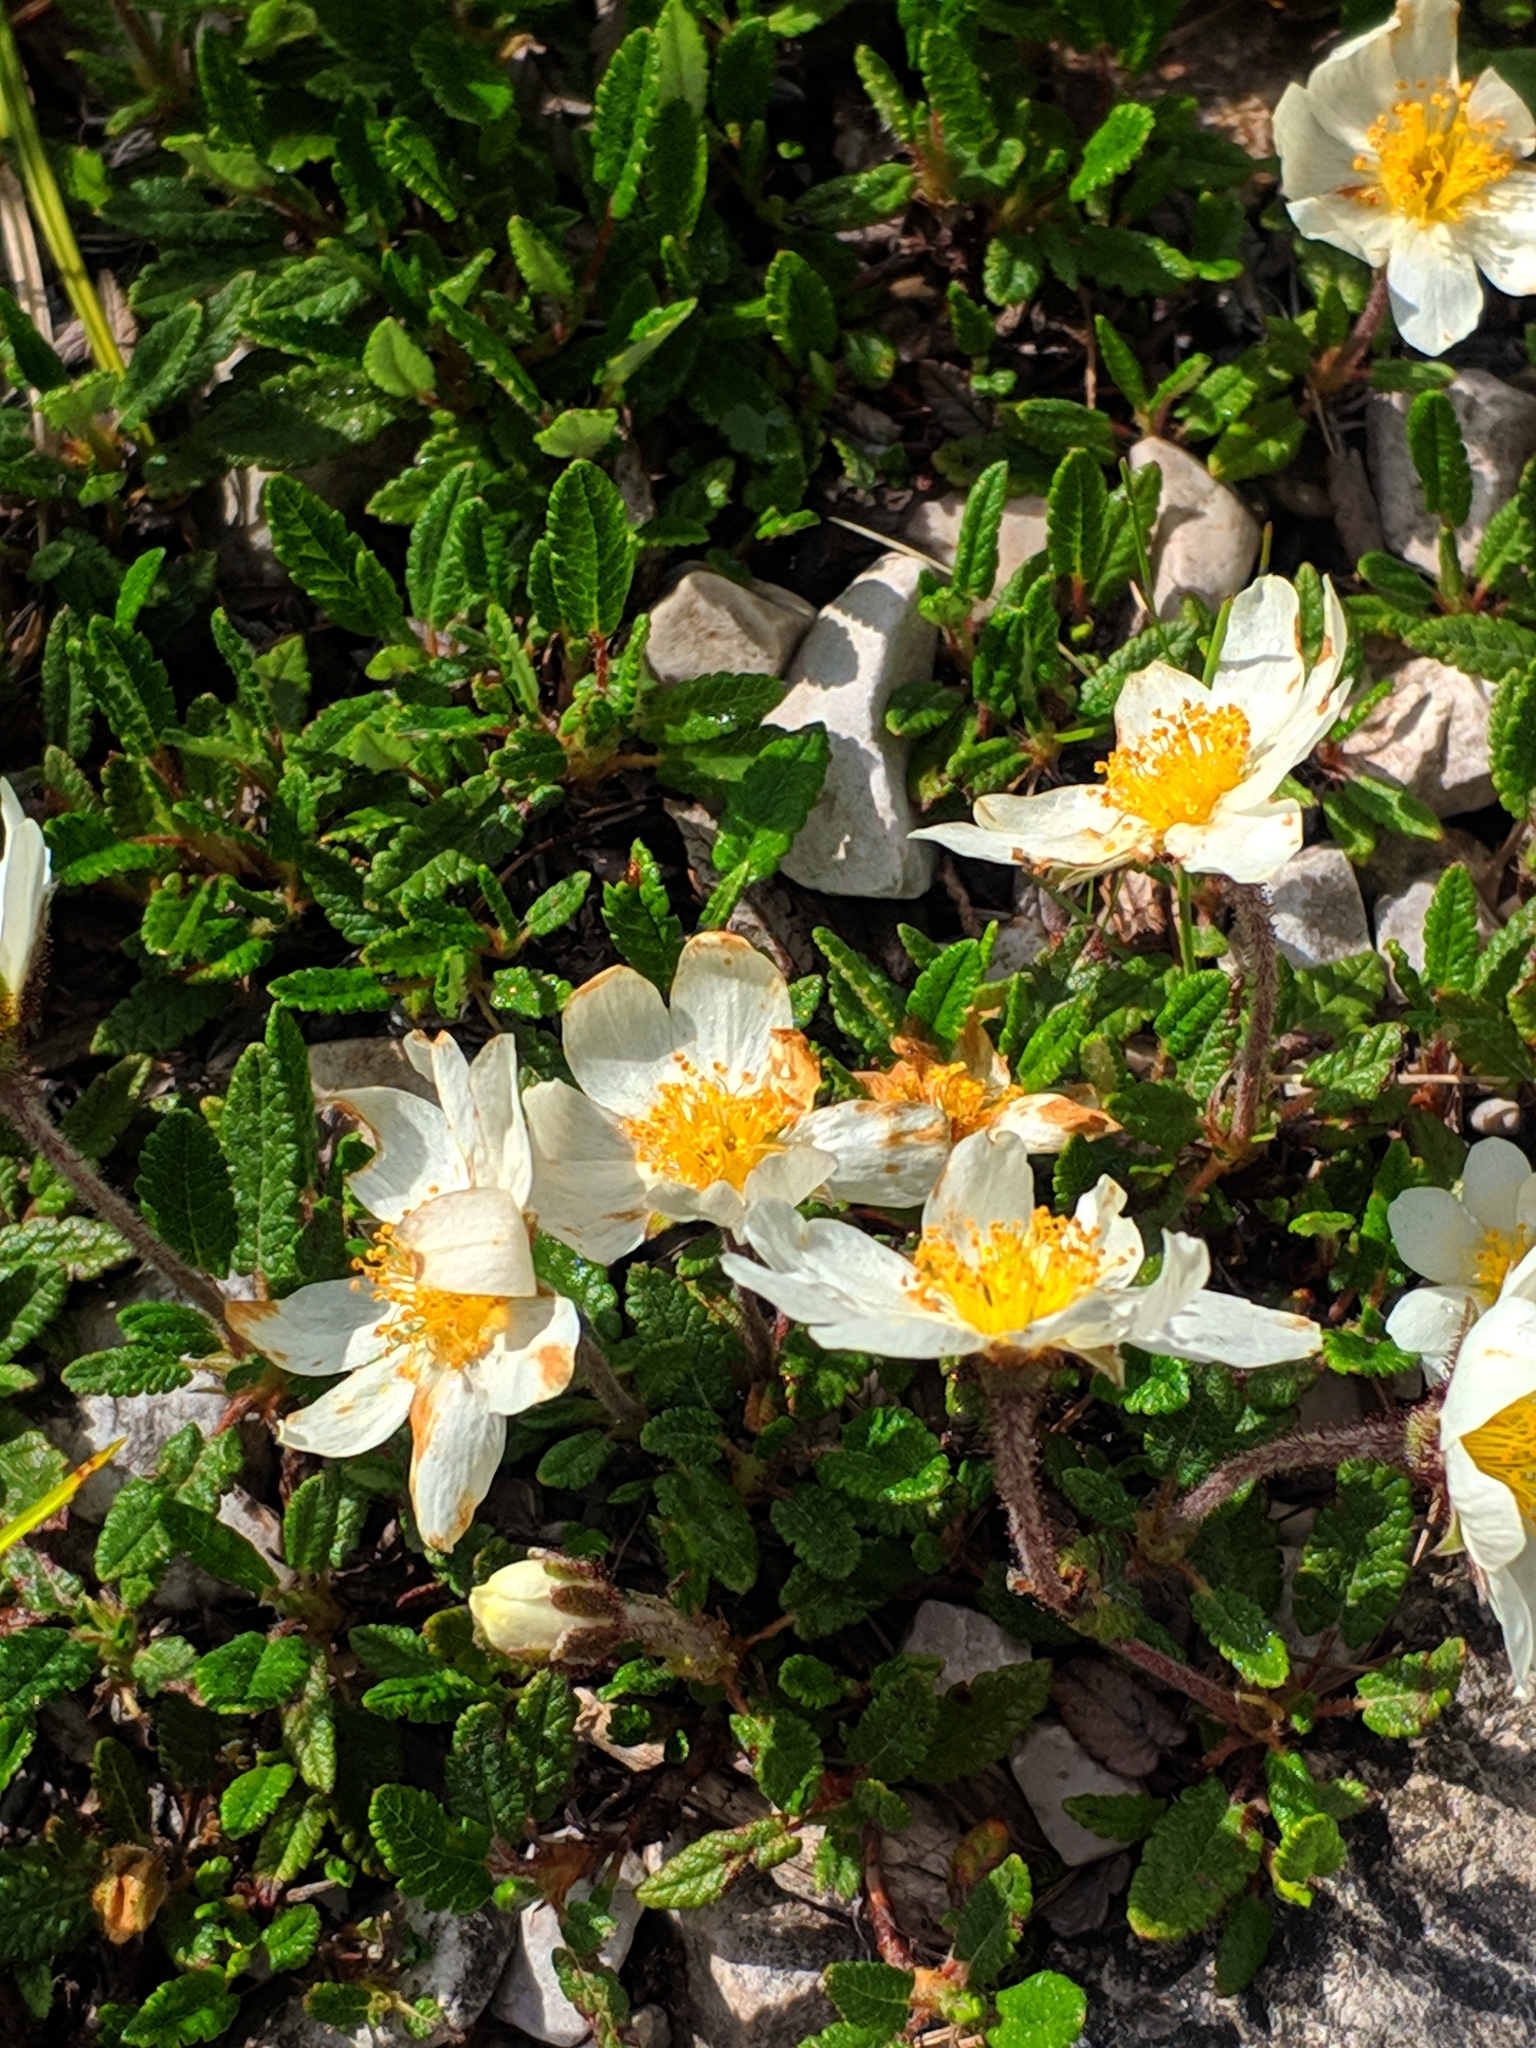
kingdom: Plantae
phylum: Tracheophyta
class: Magnoliopsida
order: Rosales
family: Rosaceae
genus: Dryas
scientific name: Dryas octopetala
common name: Eight-petal mountain-avens
